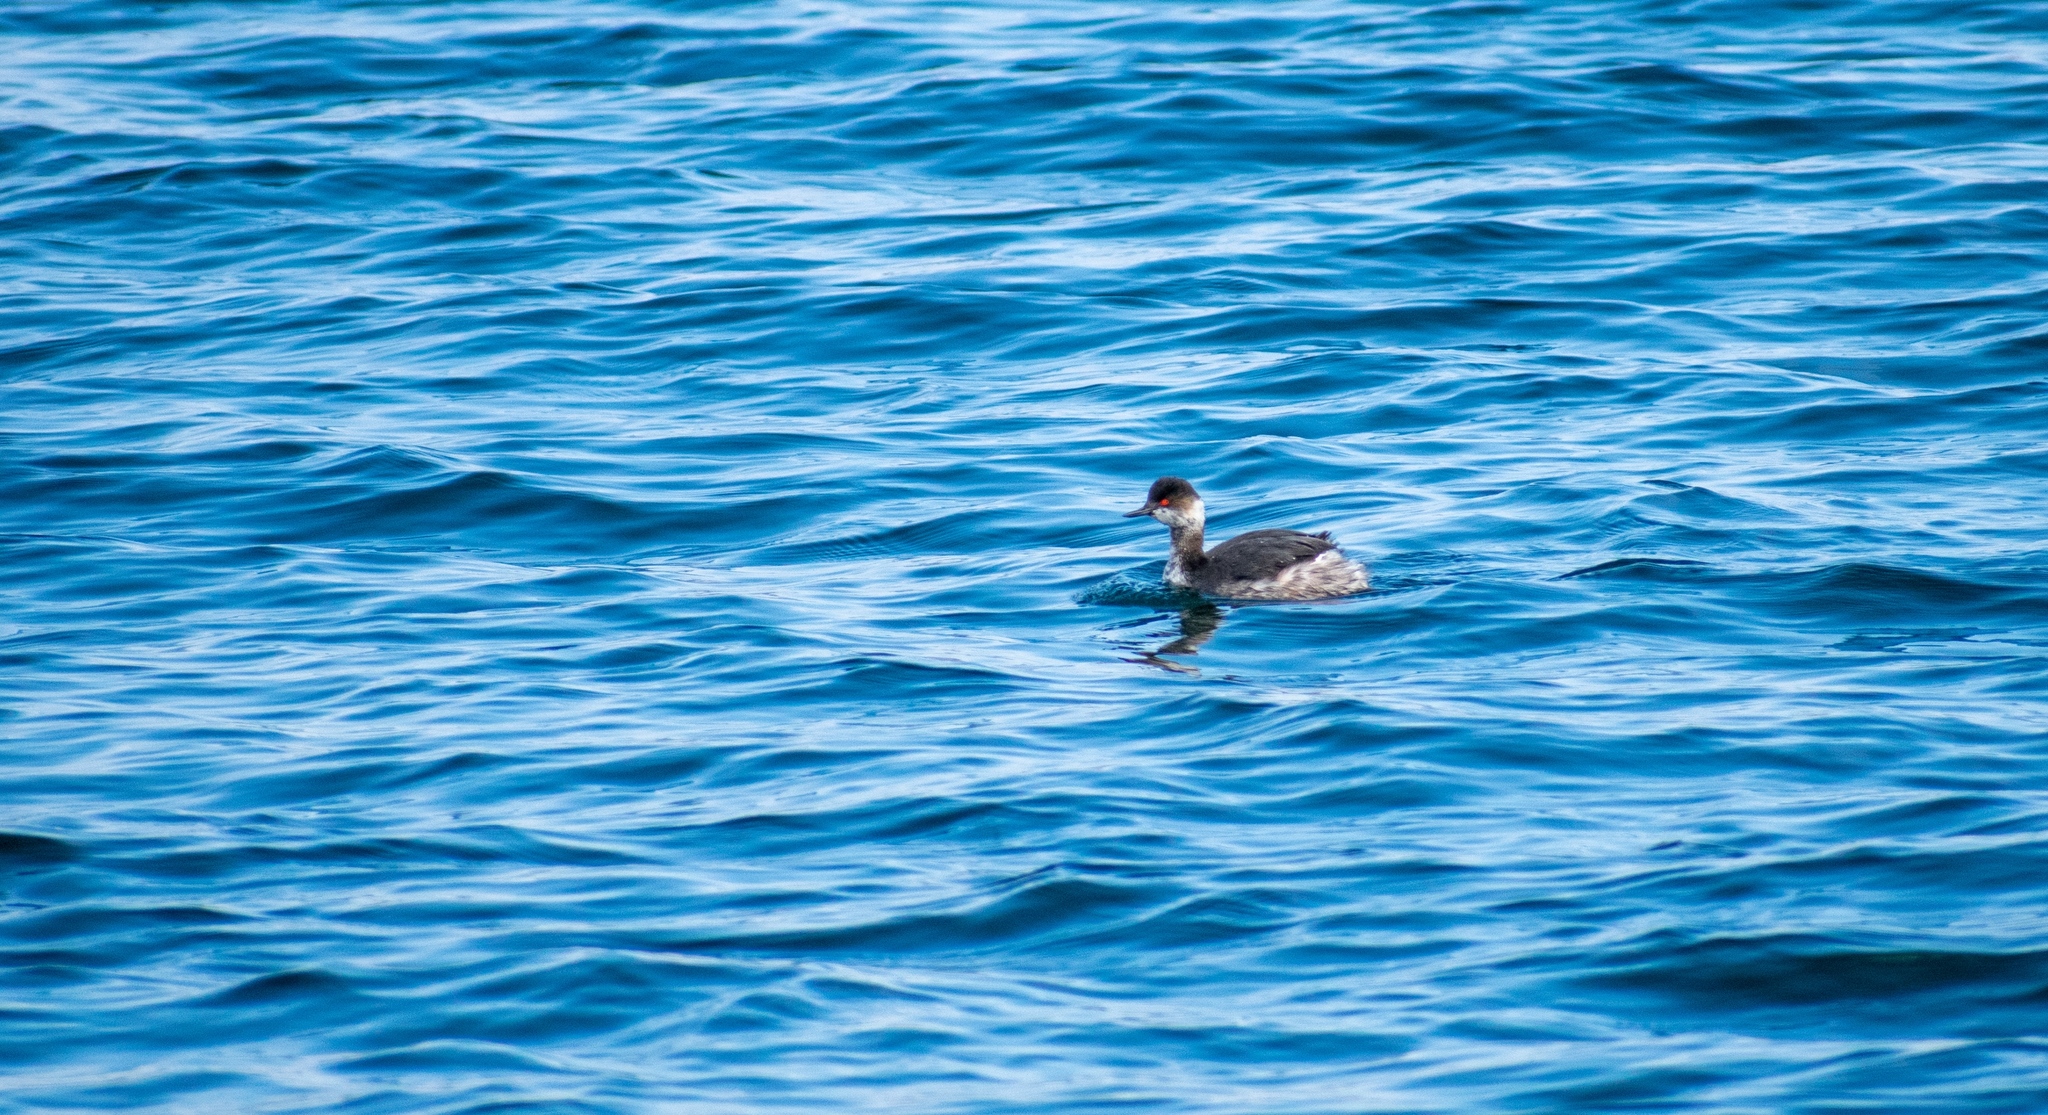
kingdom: Animalia
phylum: Chordata
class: Aves
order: Podicipediformes
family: Podicipedidae
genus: Podiceps
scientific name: Podiceps nigricollis
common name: Black-necked grebe
